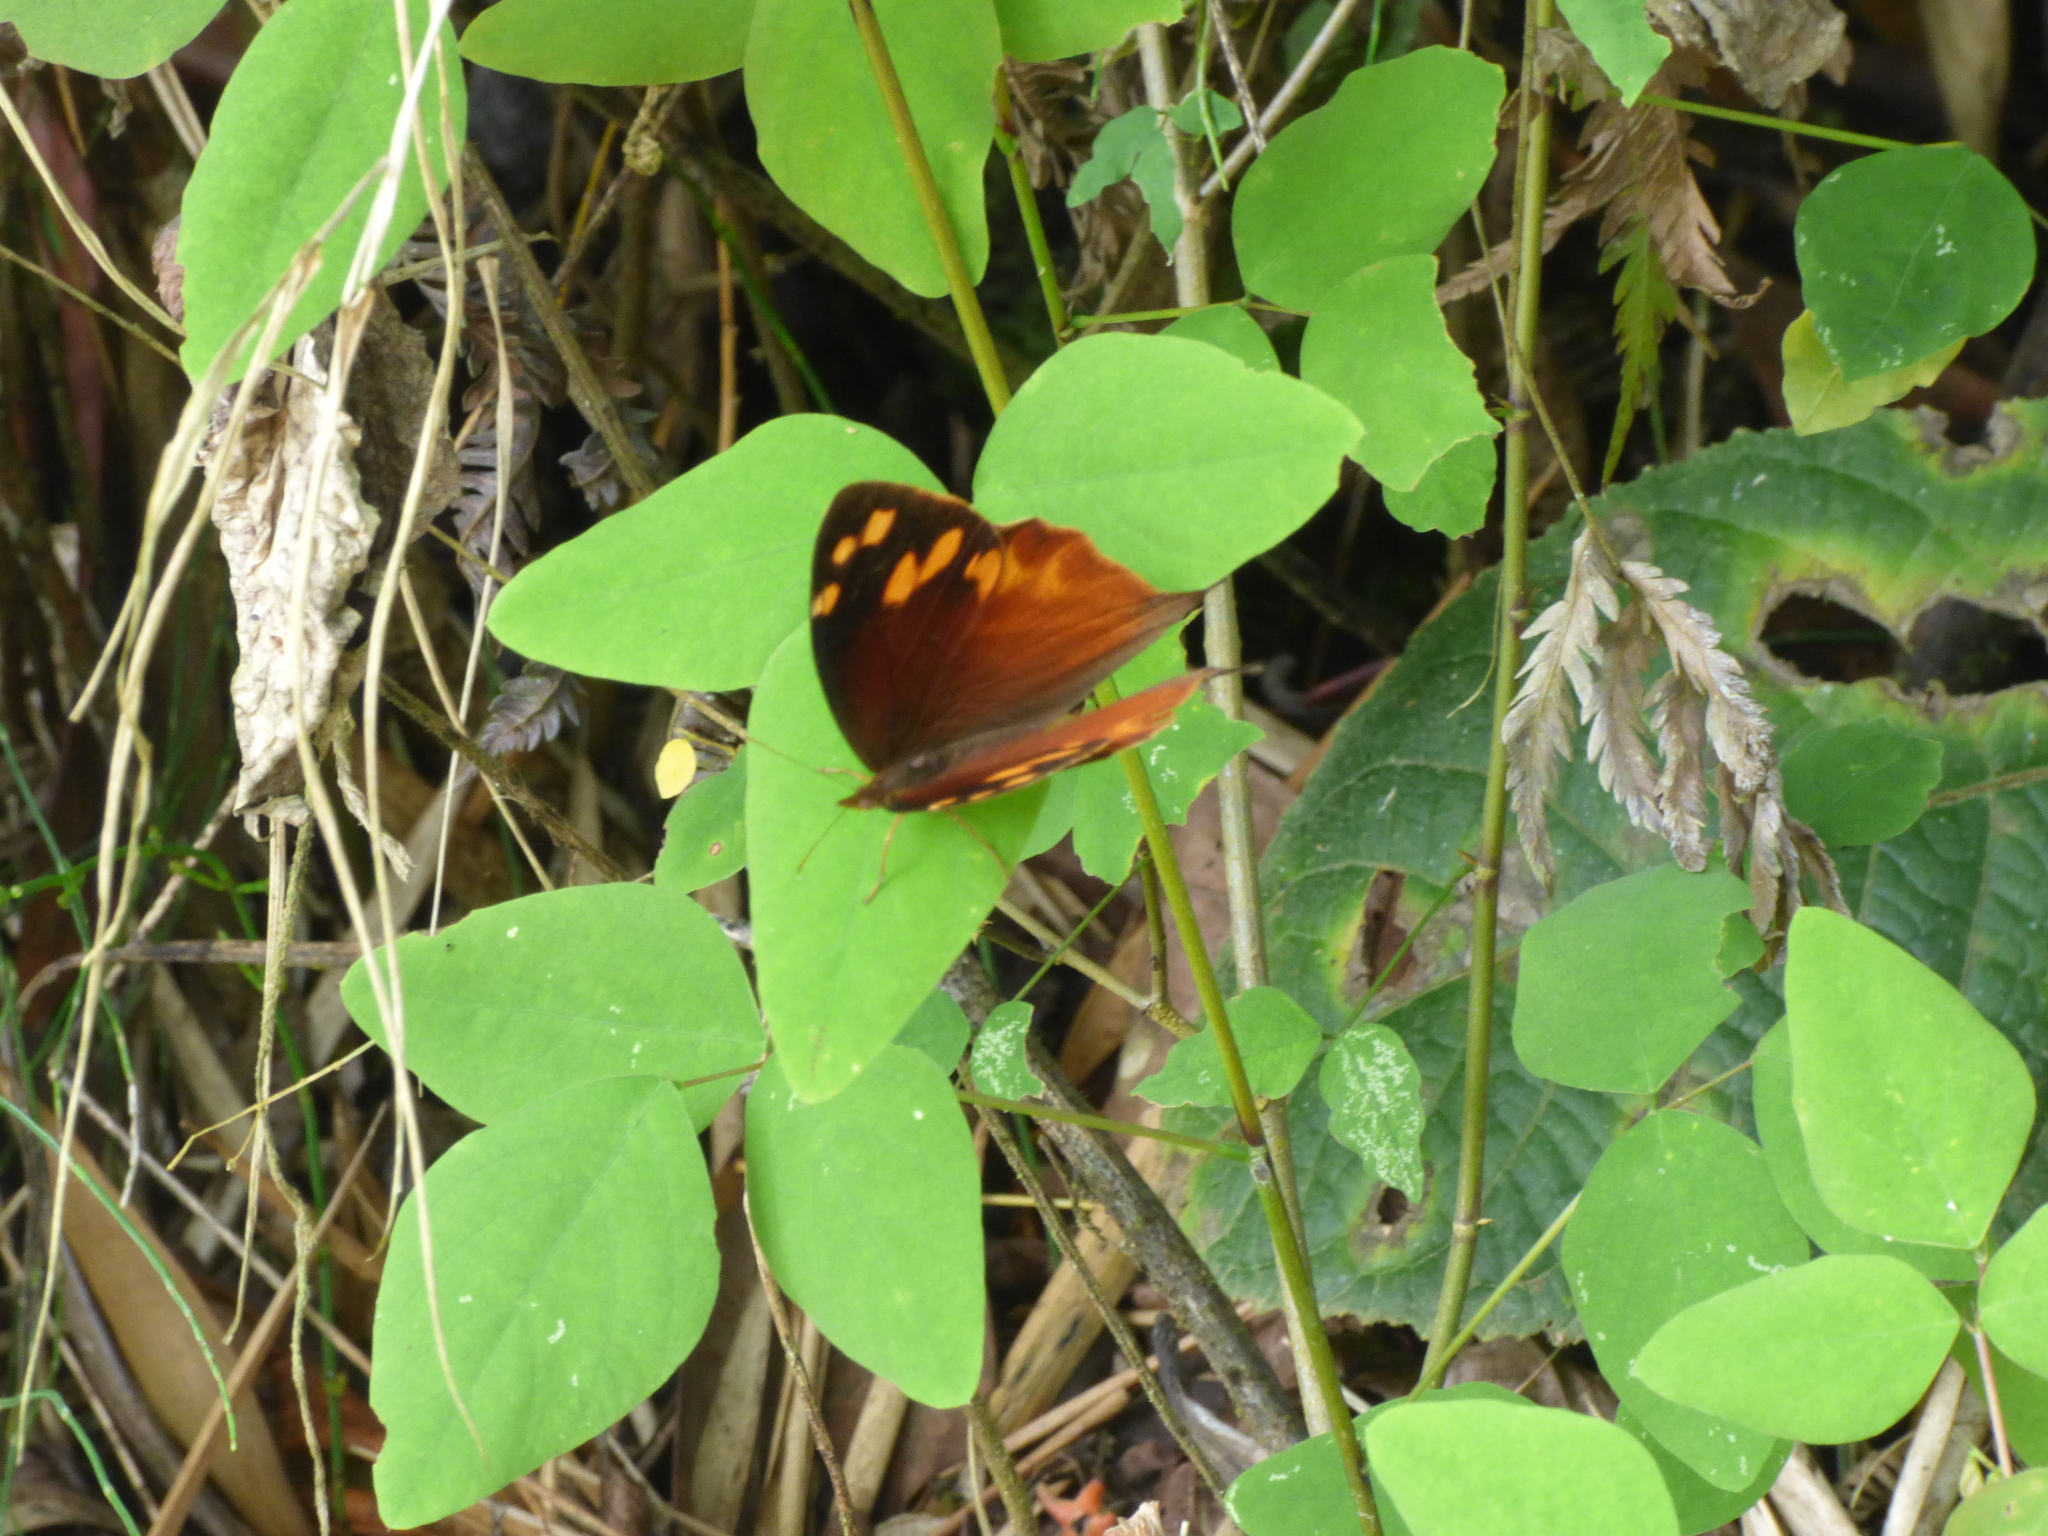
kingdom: Animalia
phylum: Arthropoda
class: Insecta
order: Lepidoptera
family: Nymphalidae
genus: Corades
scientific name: Corades enyo
